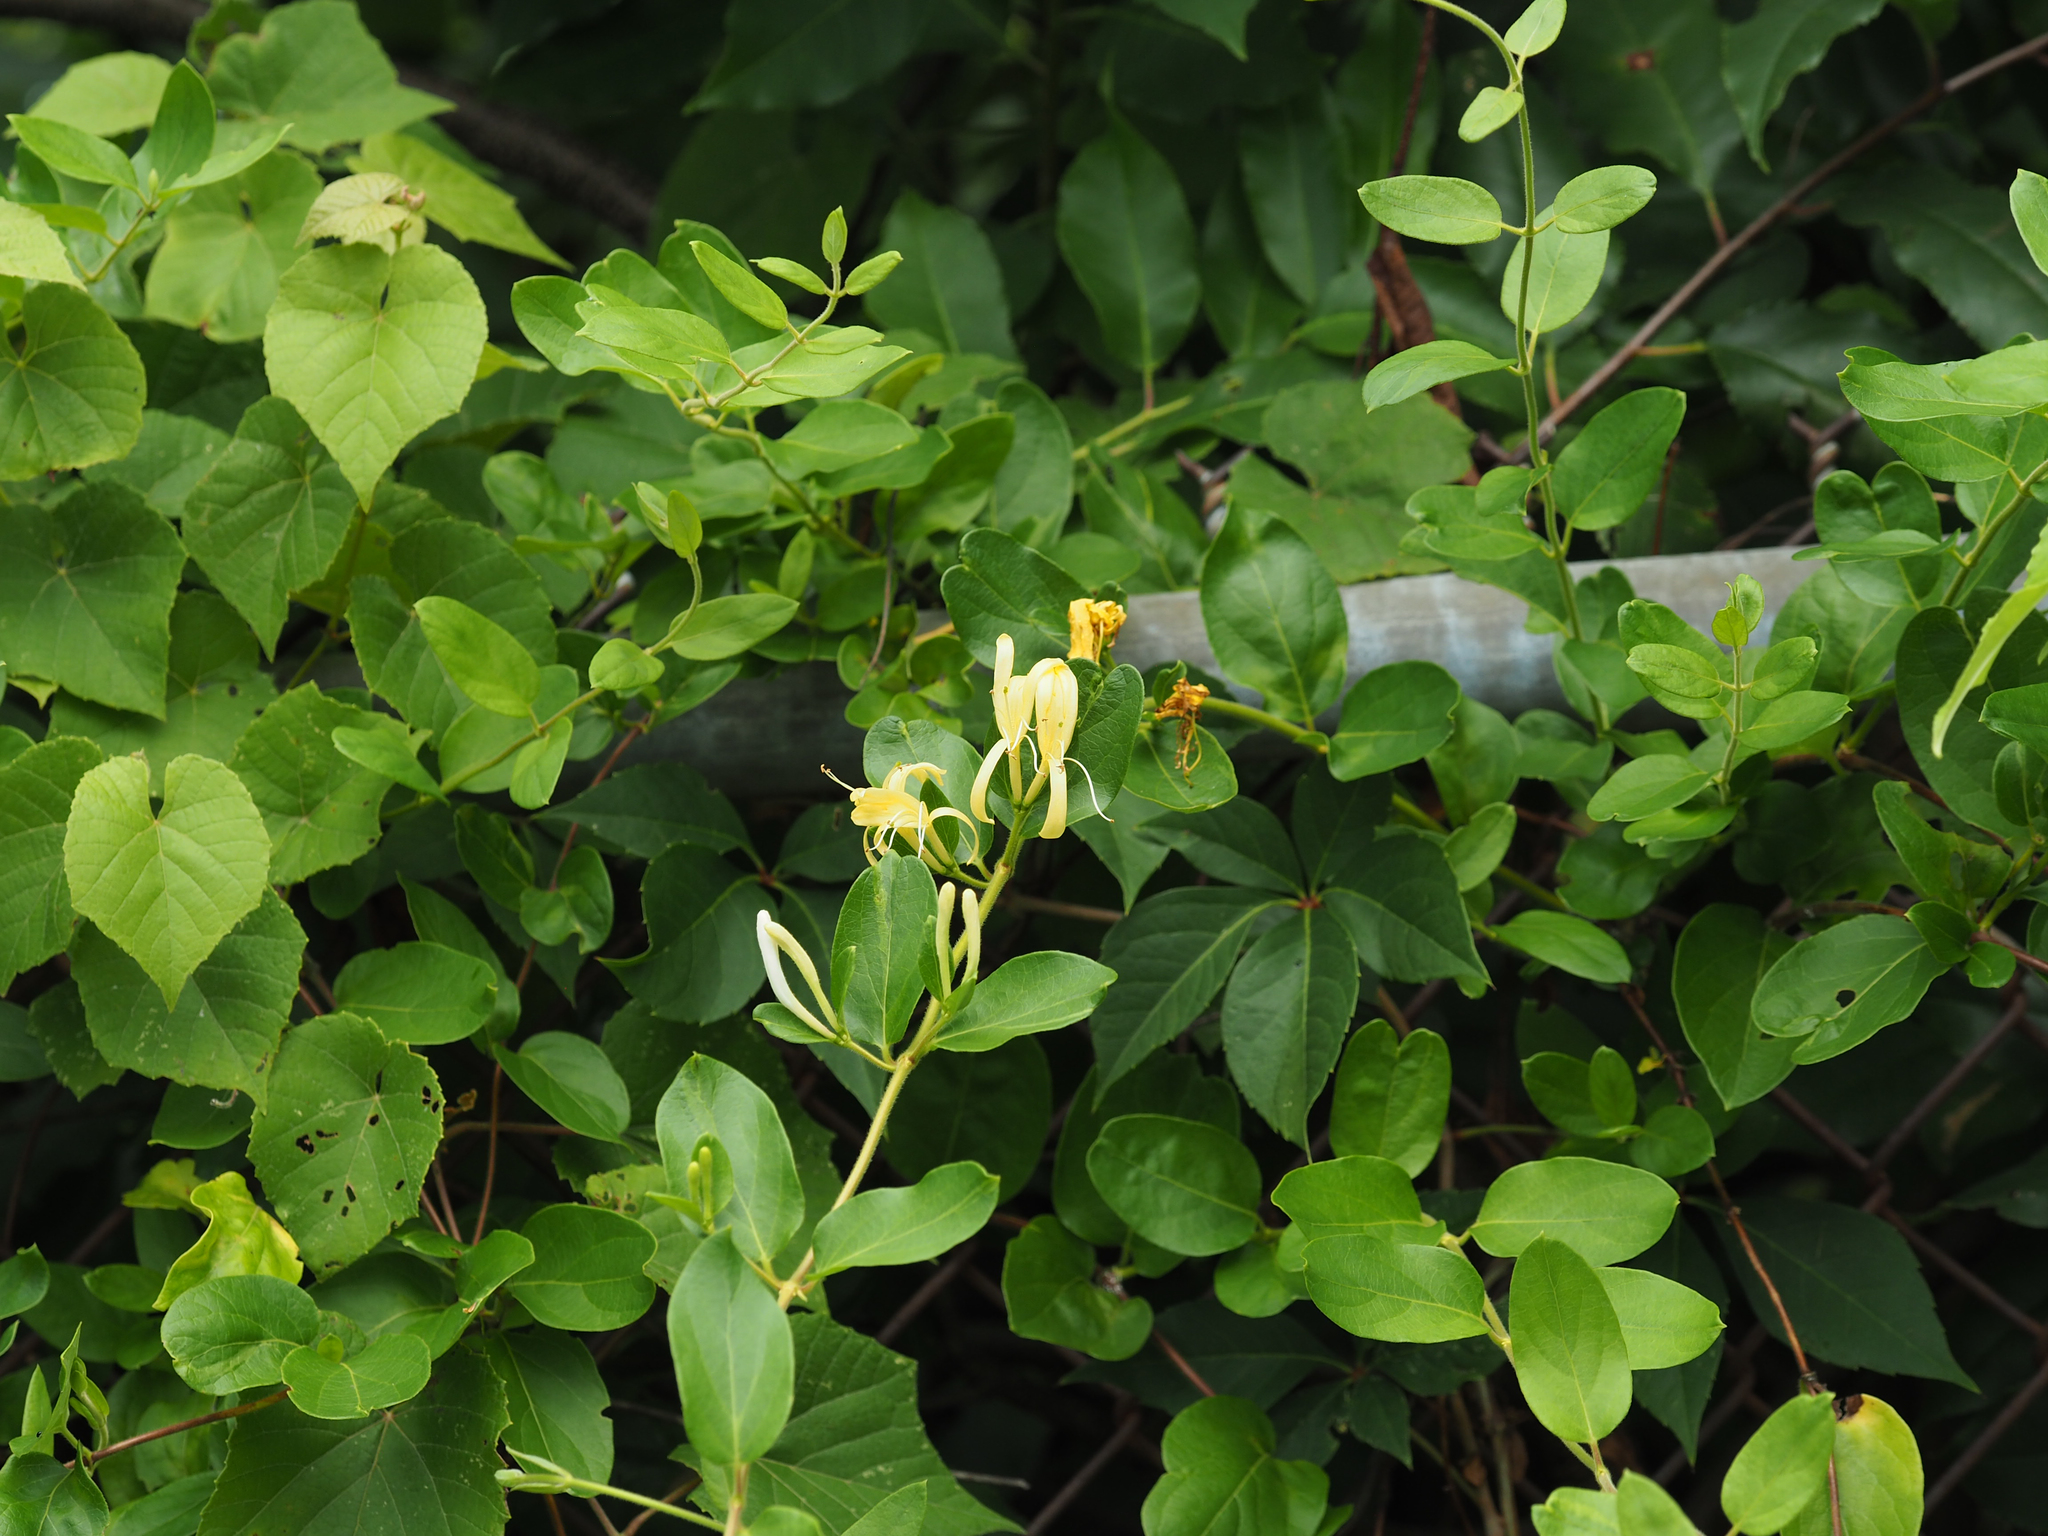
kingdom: Plantae
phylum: Tracheophyta
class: Magnoliopsida
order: Dipsacales
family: Caprifoliaceae
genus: Lonicera
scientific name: Lonicera japonica
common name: Japanese honeysuckle
